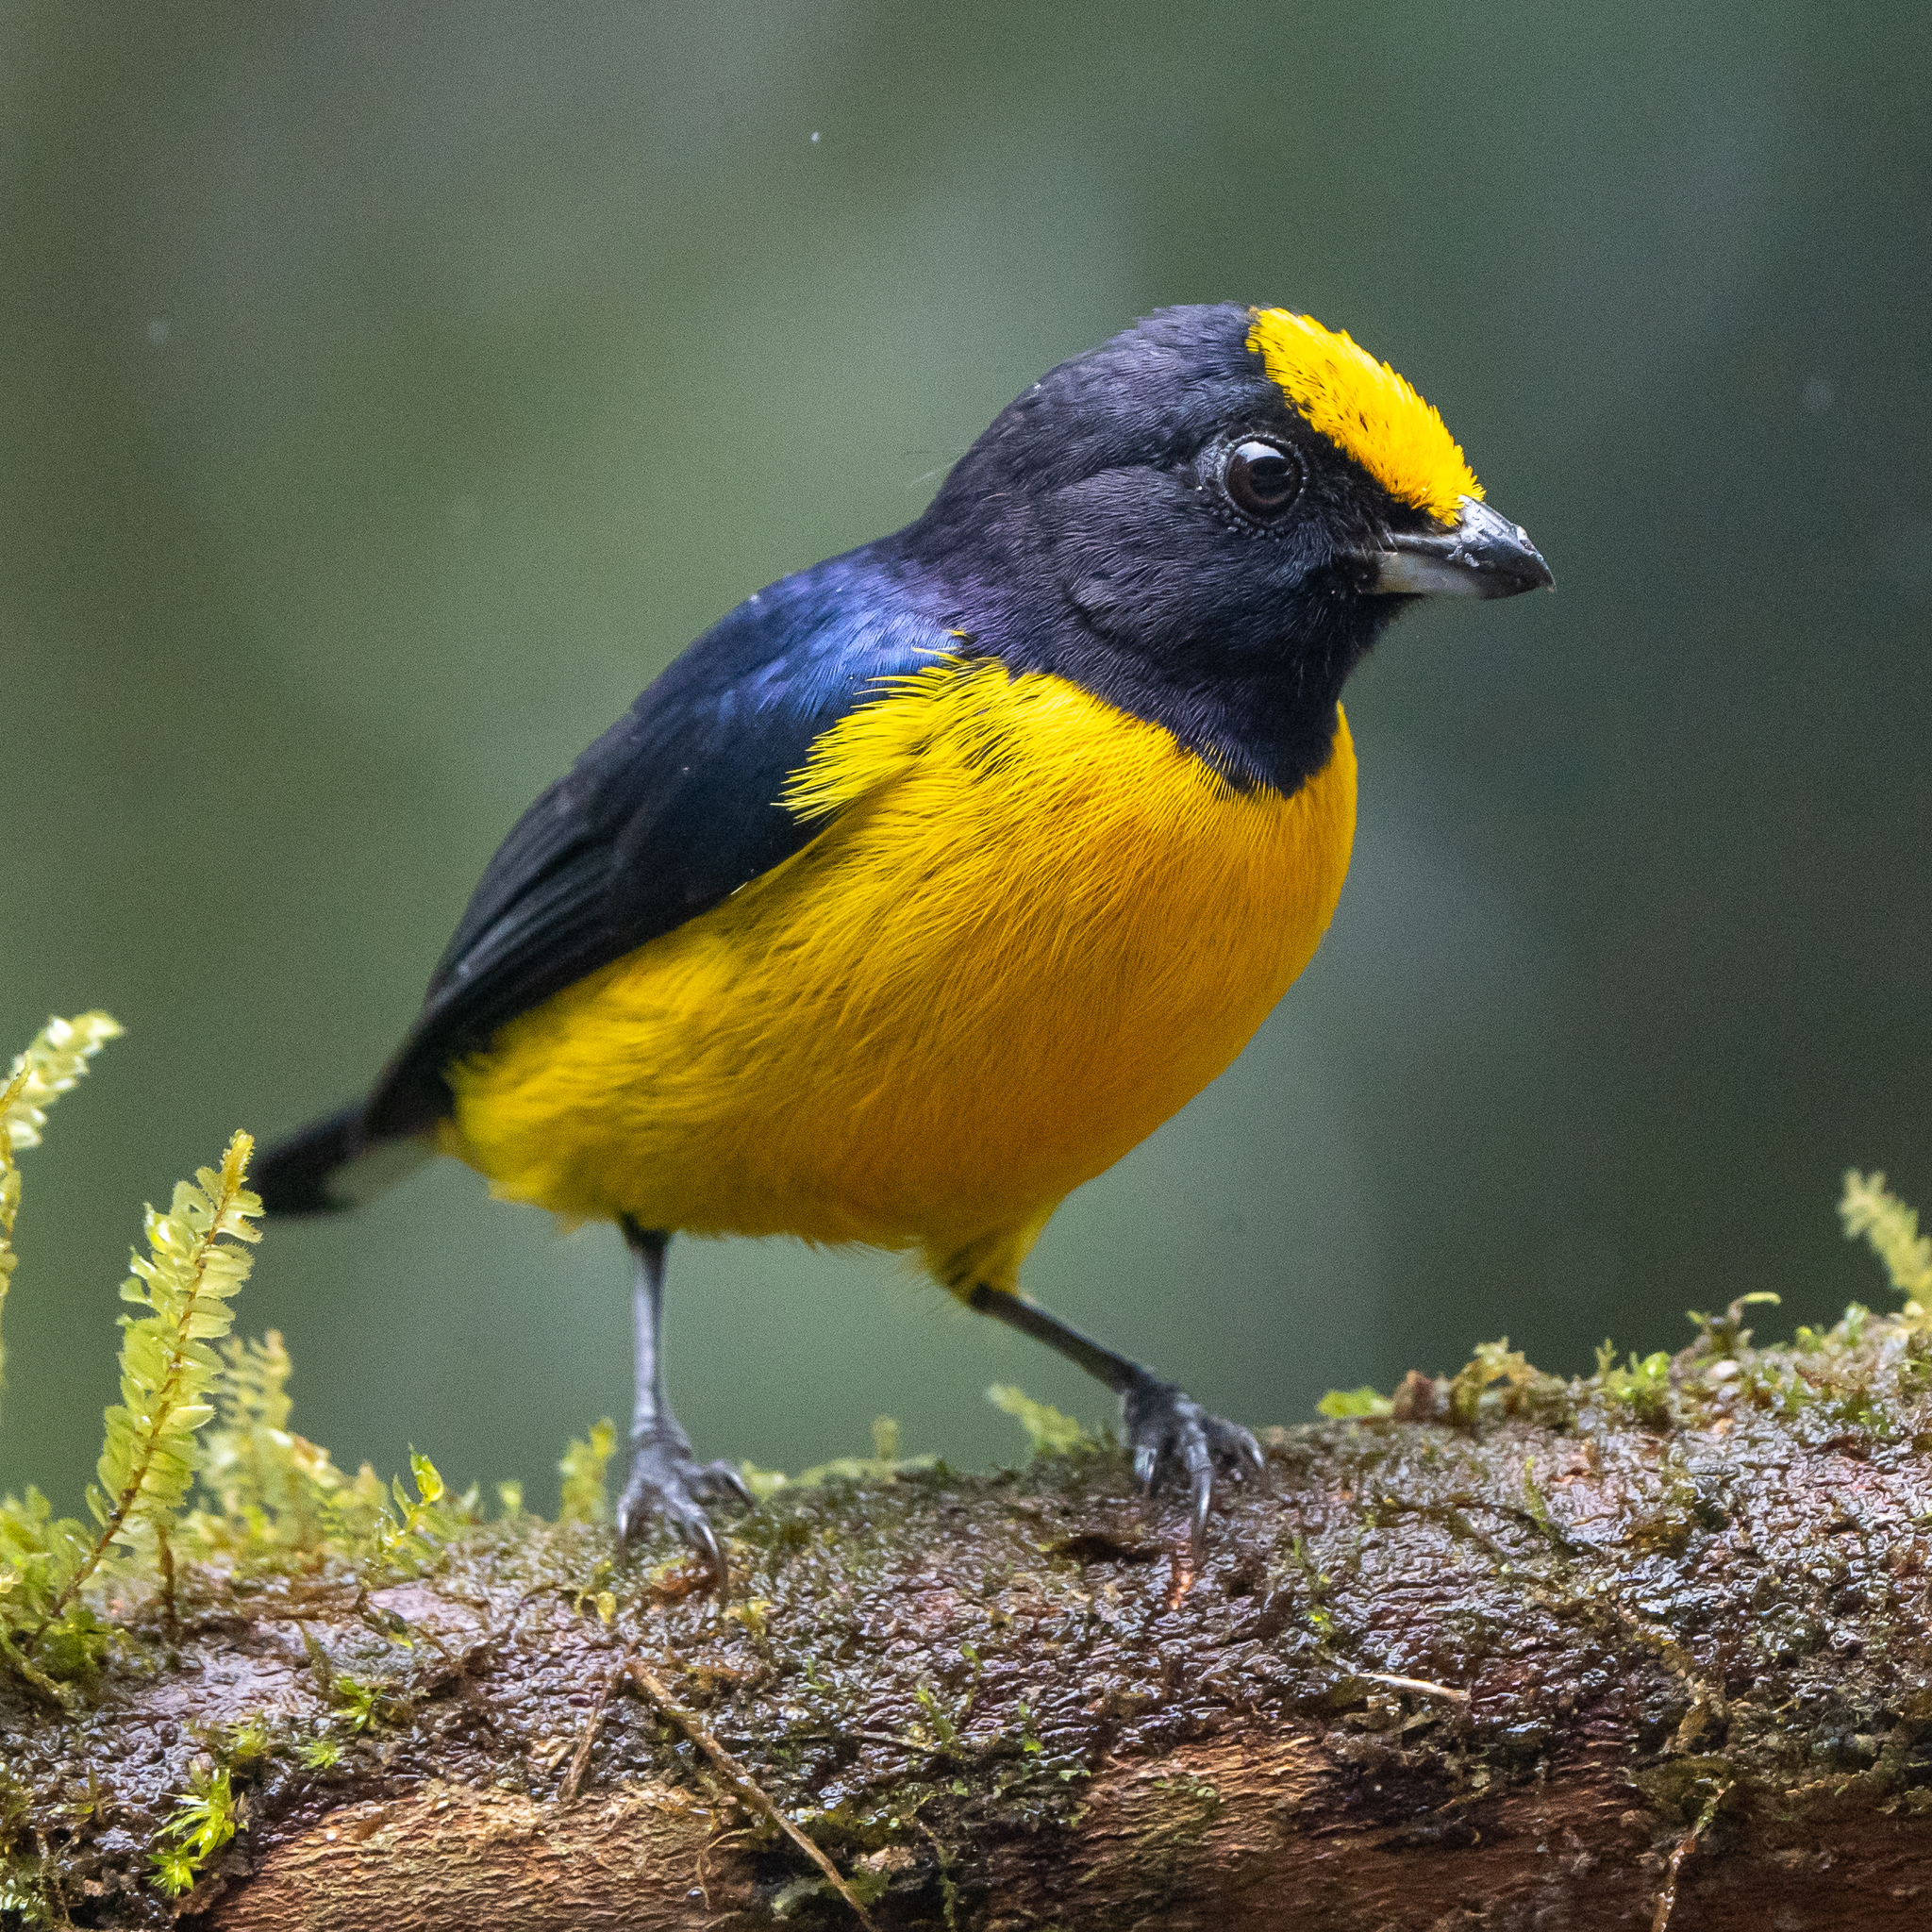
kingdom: Animalia
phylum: Chordata
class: Aves
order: Passeriformes
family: Fringillidae
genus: Euphonia
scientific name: Euphonia xanthogaster
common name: Orange-bellied euphonia
